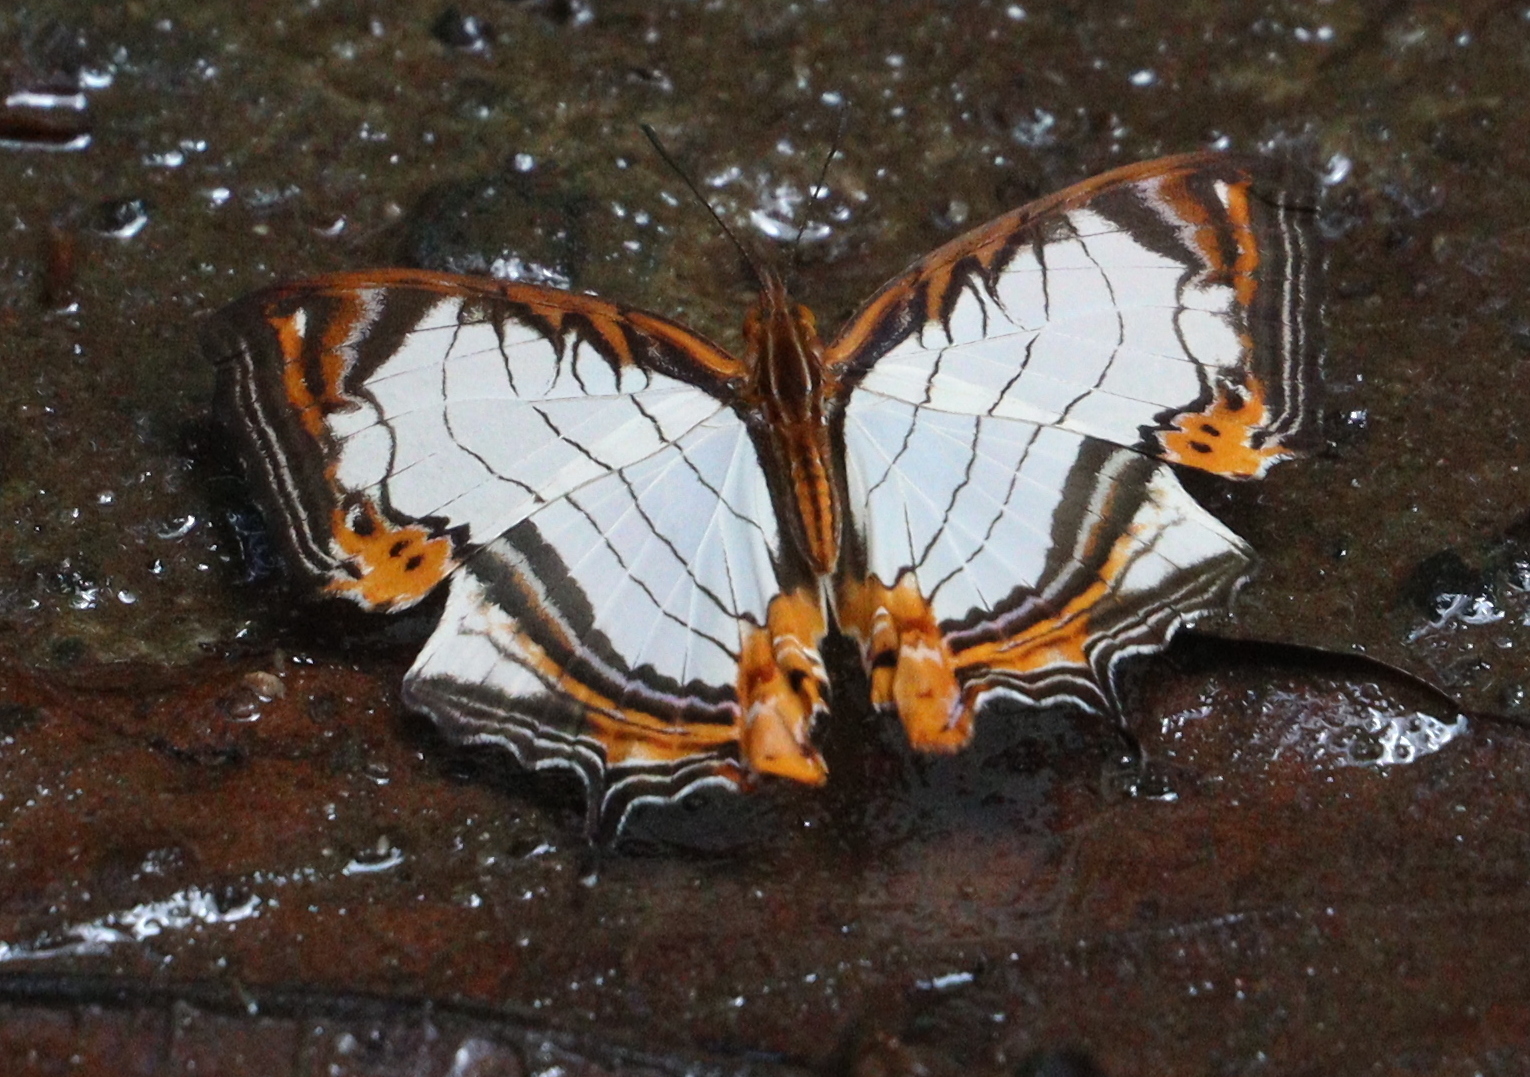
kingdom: Animalia
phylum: Arthropoda
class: Insecta
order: Lepidoptera
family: Nymphalidae
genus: Cyrestis
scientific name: Cyrestis nivea
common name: Straight line mapwing
